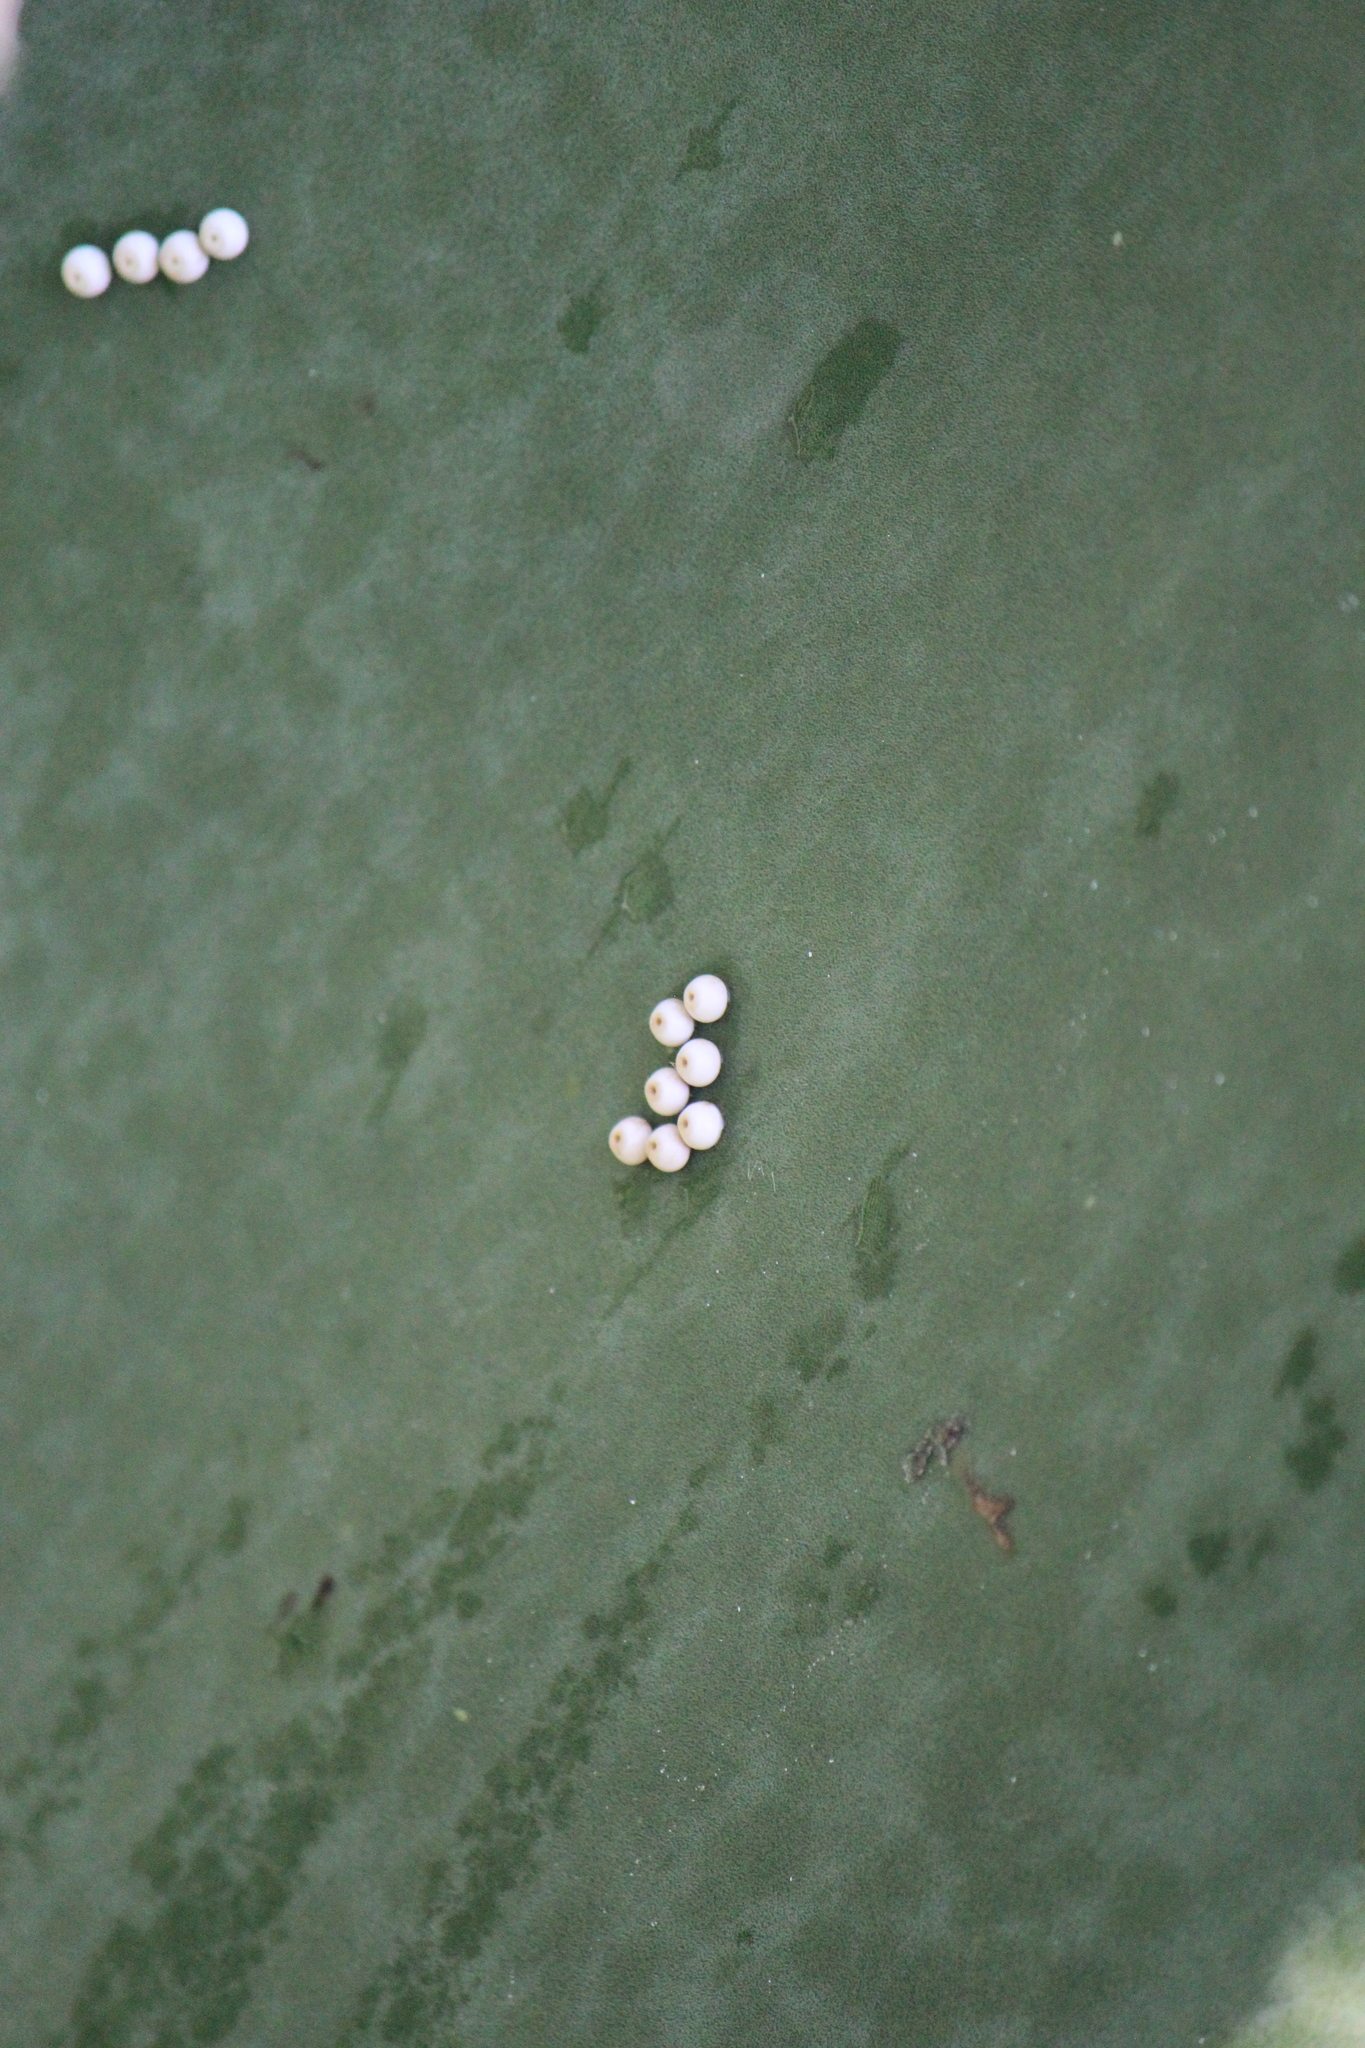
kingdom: Animalia
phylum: Arthropoda
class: Insecta
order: Lepidoptera
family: Hesperiidae
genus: Aegiale
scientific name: Aegiale hesperiaris
